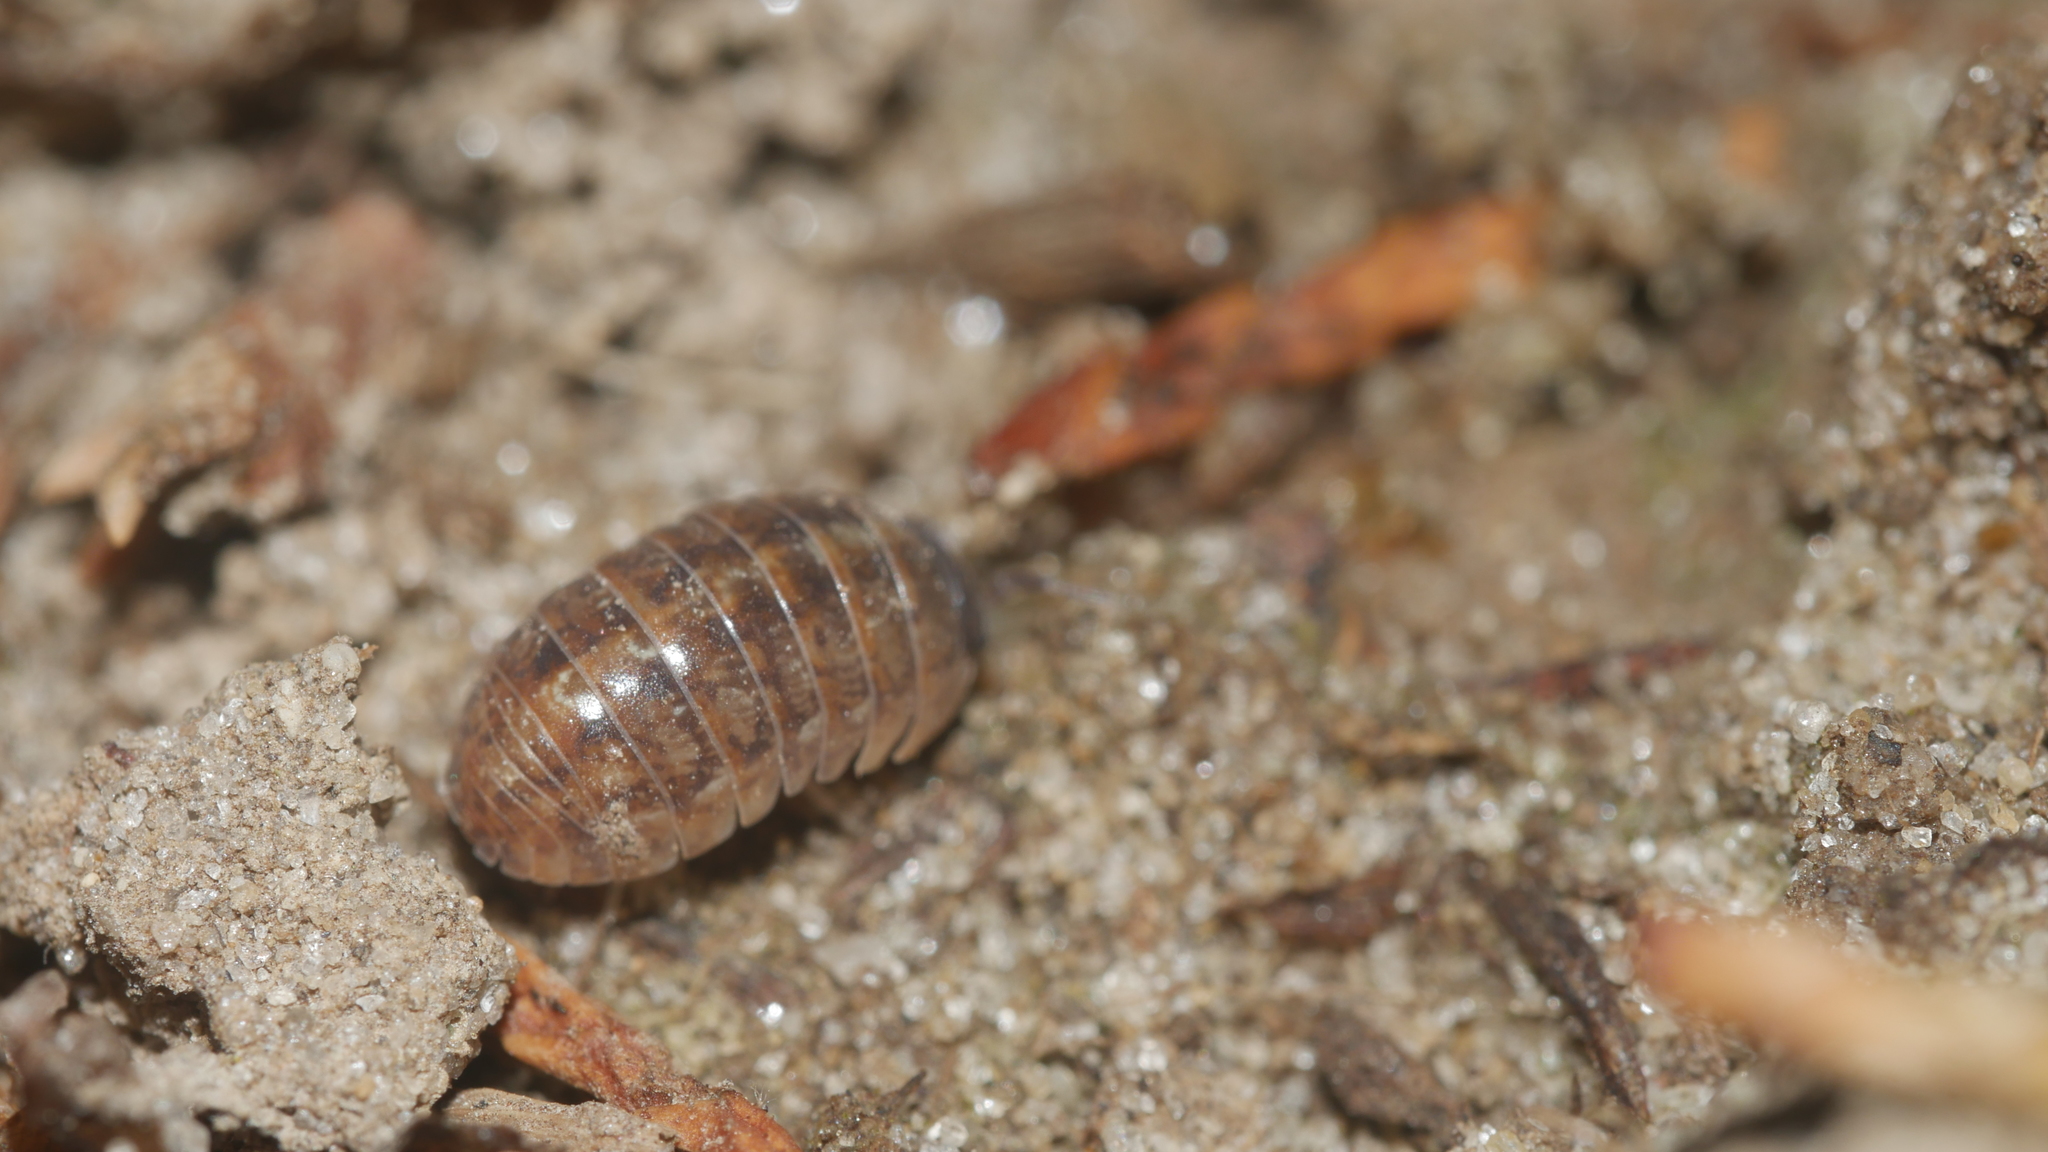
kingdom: Animalia
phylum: Arthropoda
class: Malacostraca
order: Isopoda
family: Armadillidiidae
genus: Armadillidium
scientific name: Armadillidium vulgare
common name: Common pill woodlouse
